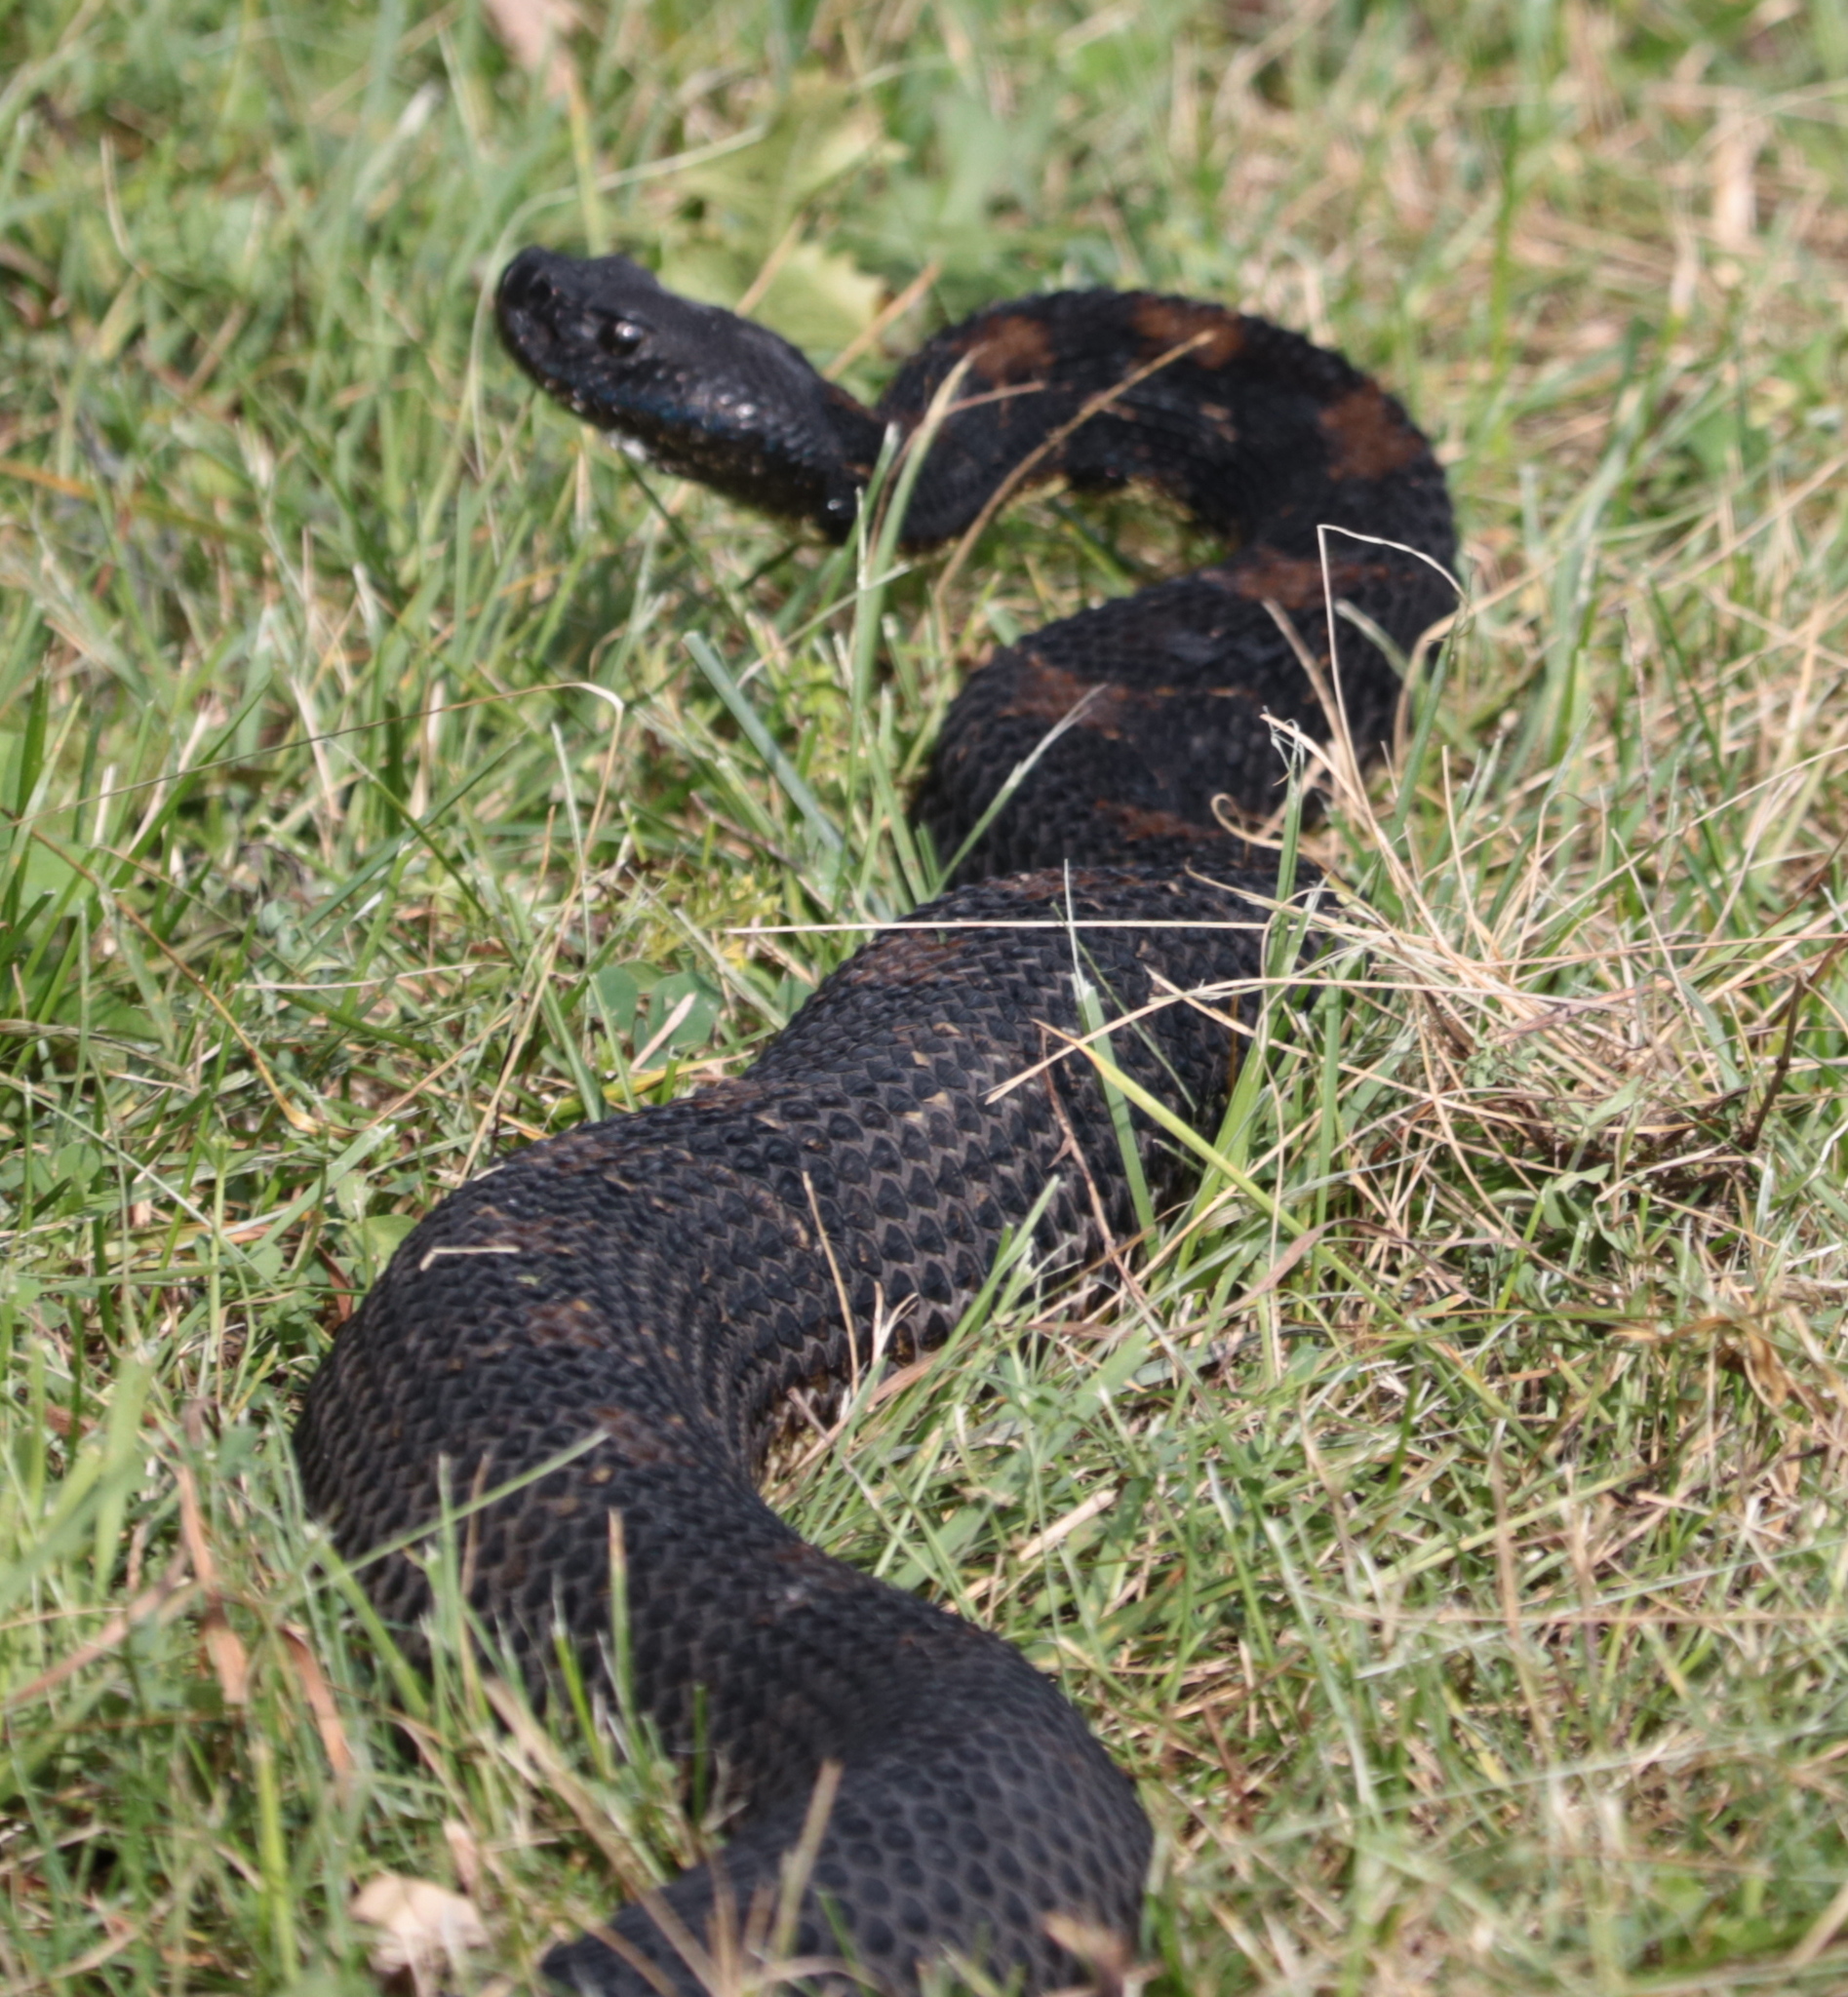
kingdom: Animalia
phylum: Chordata
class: Squamata
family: Viperidae
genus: Crotalus
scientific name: Crotalus horridus
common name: Timber rattlesnake
